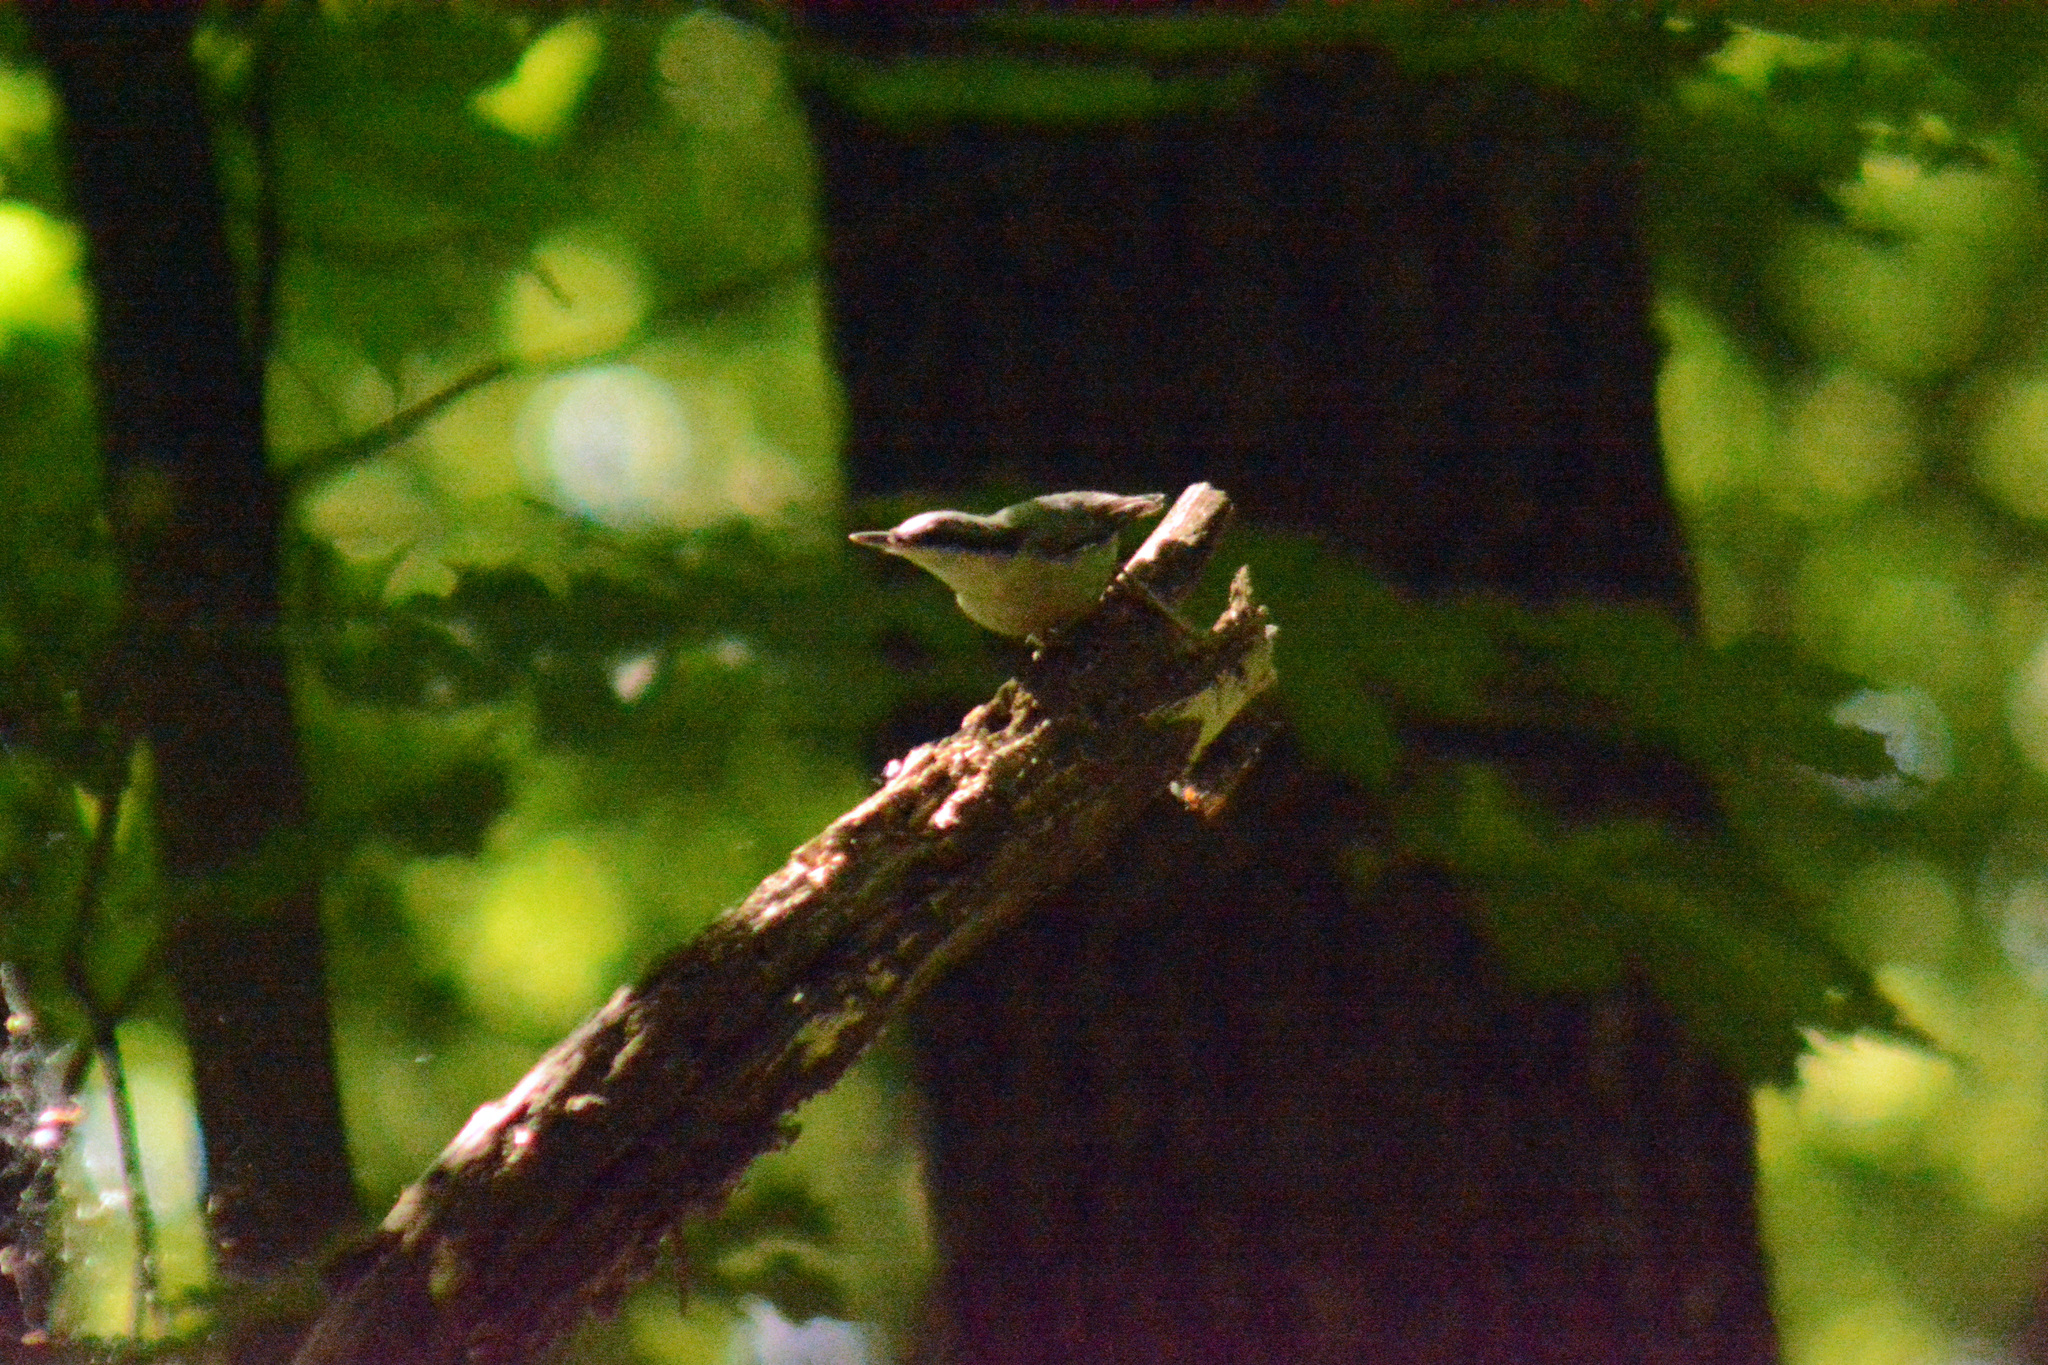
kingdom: Animalia
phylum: Chordata
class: Aves
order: Passeriformes
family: Sittidae
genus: Sitta
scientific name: Sitta europaea
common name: Eurasian nuthatch
